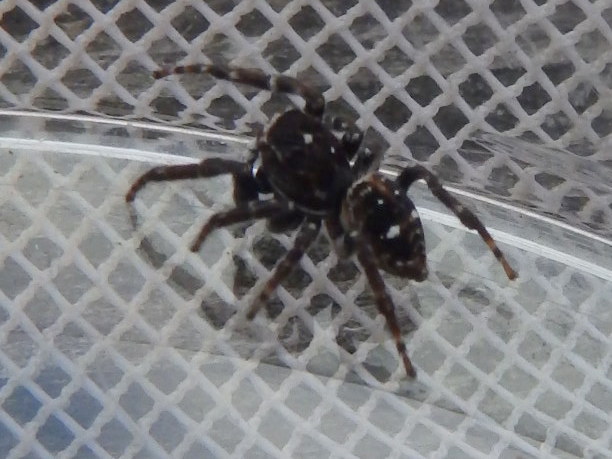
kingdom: Animalia
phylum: Arthropoda
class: Arachnida
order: Araneae
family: Salticidae
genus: Attulus
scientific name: Attulus floricola
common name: Flower jumping spider
